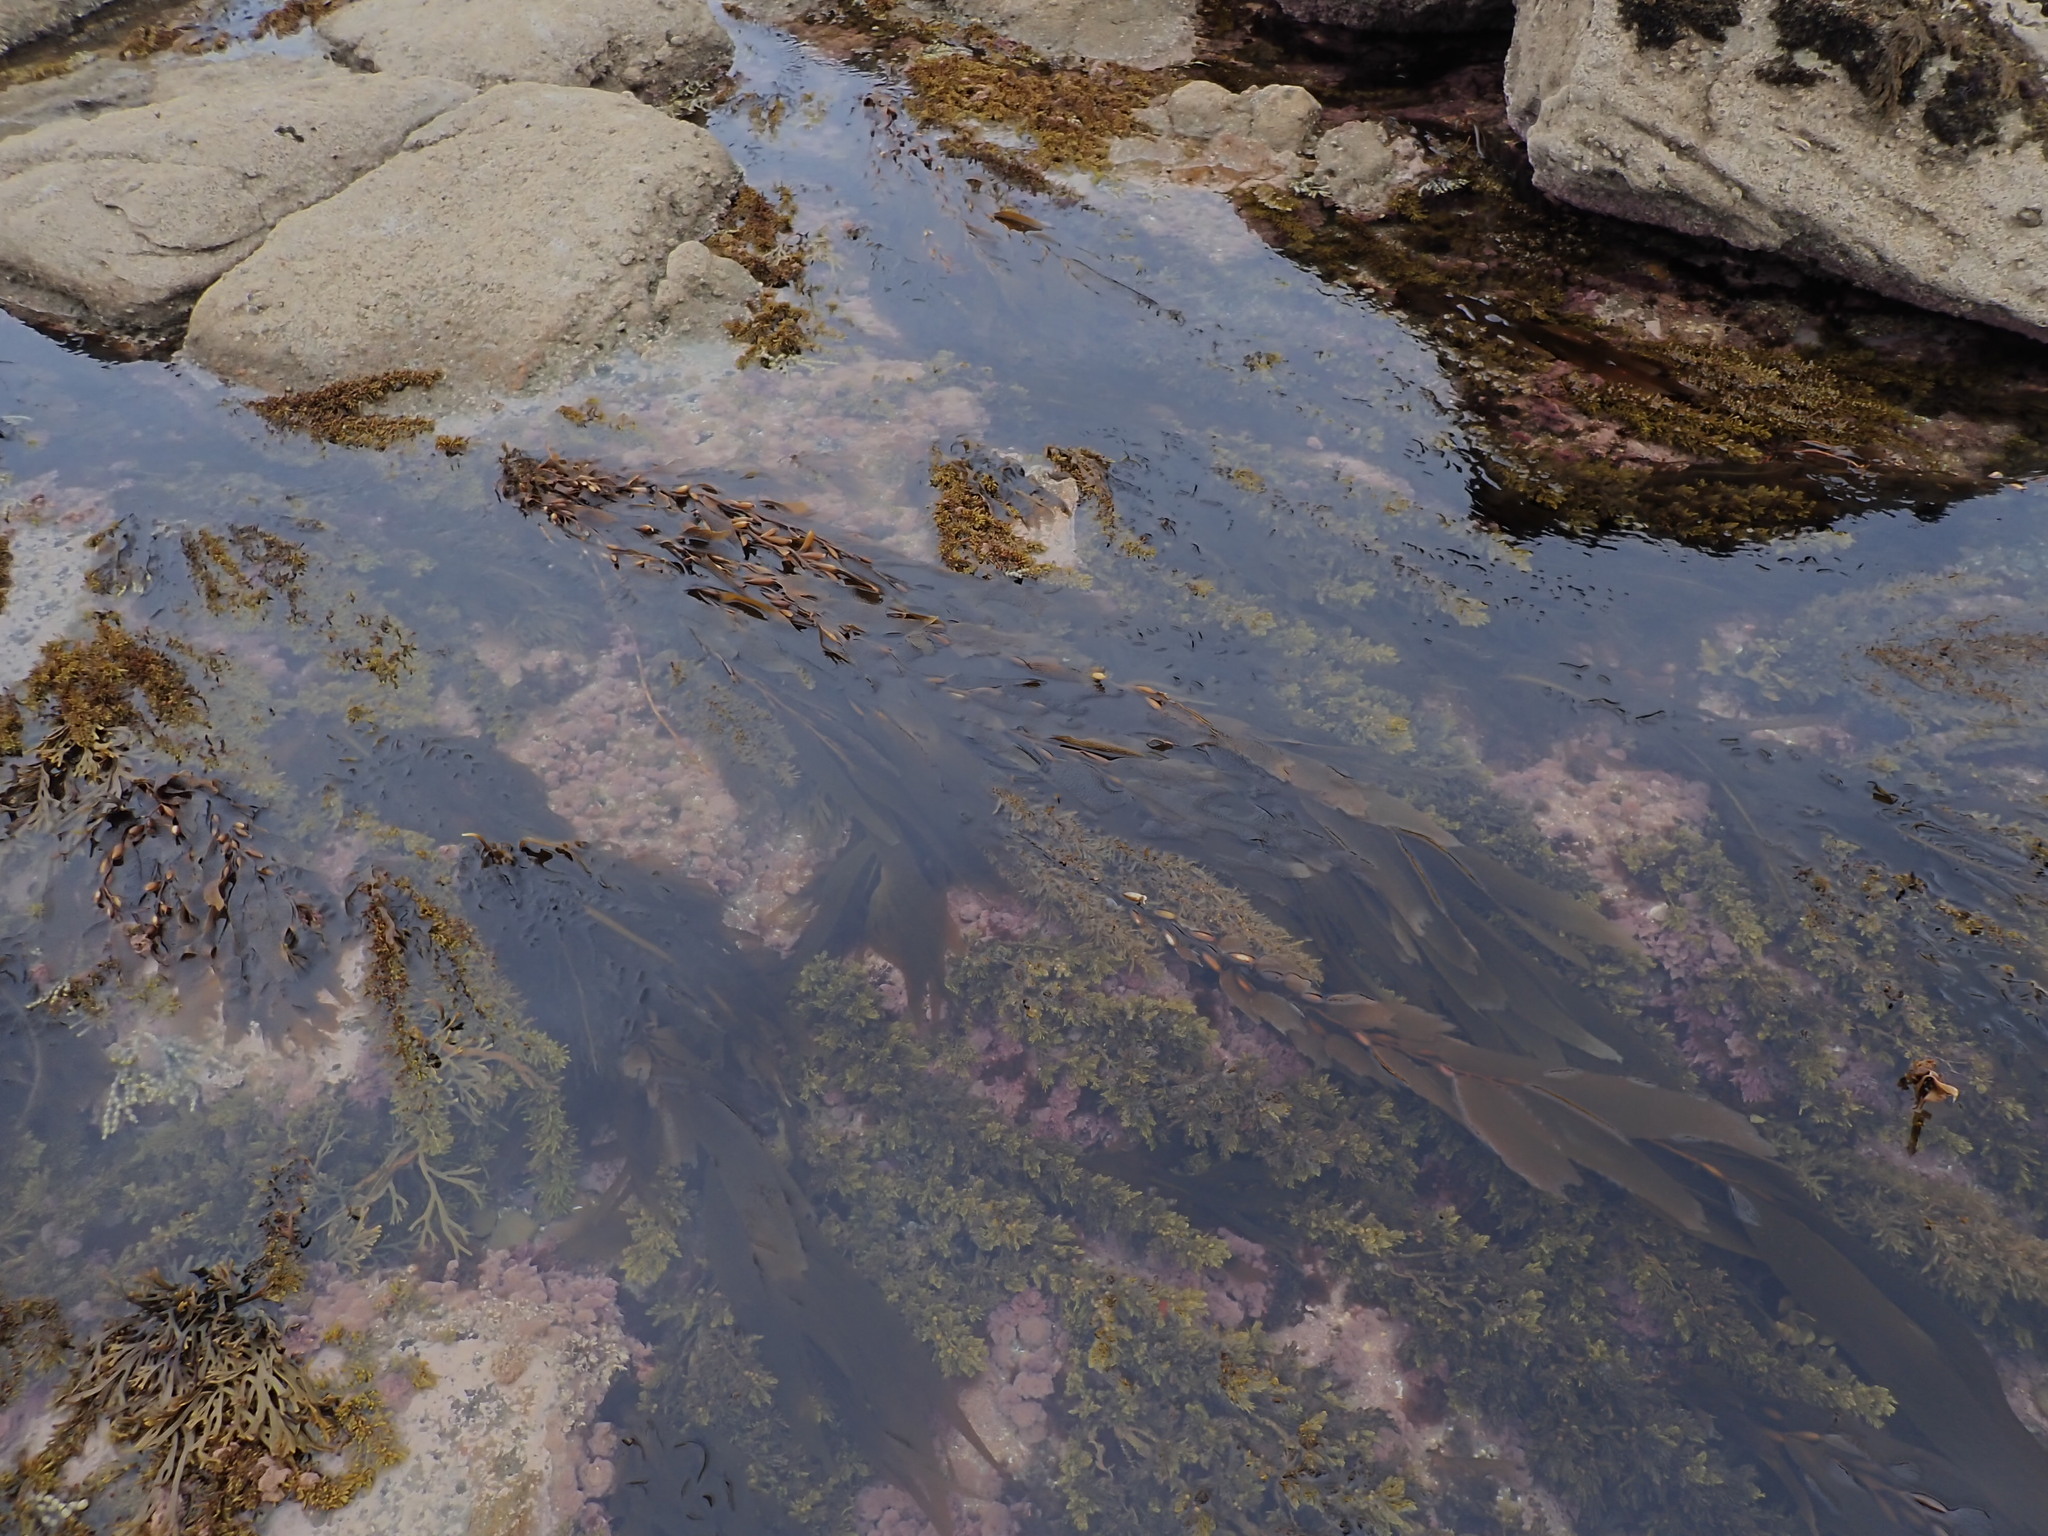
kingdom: Chromista
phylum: Ochrophyta
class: Phaeophyceae
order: Laminariales
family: Laminariaceae
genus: Macrocystis
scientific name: Macrocystis pyrifera
